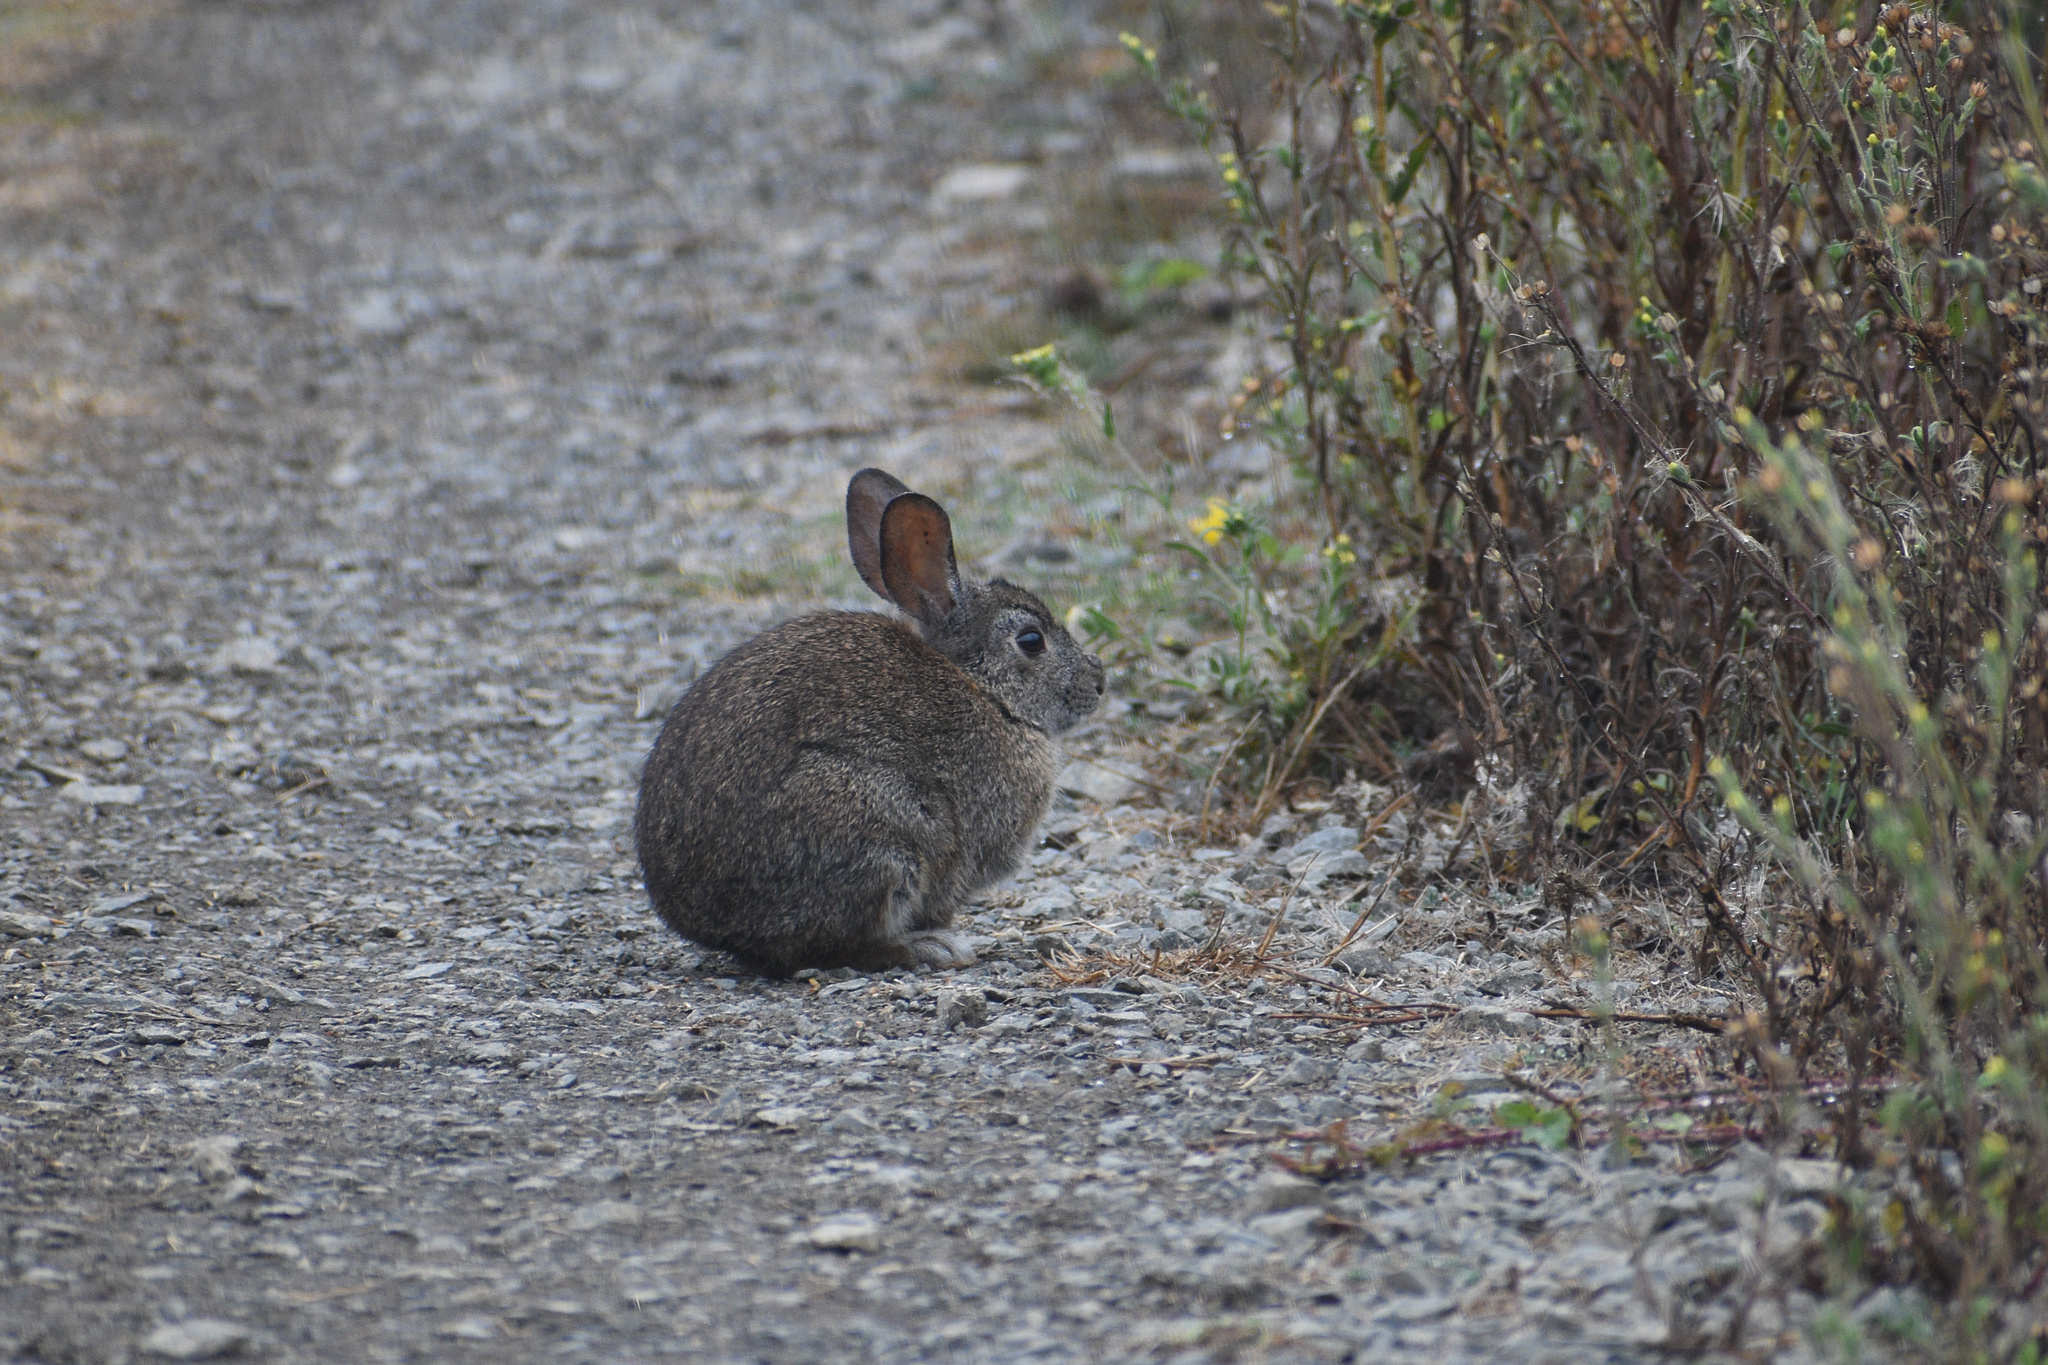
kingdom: Animalia
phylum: Chordata
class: Mammalia
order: Lagomorpha
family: Leporidae
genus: Sylvilagus
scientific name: Sylvilagus bachmani
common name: Brush rabbit
